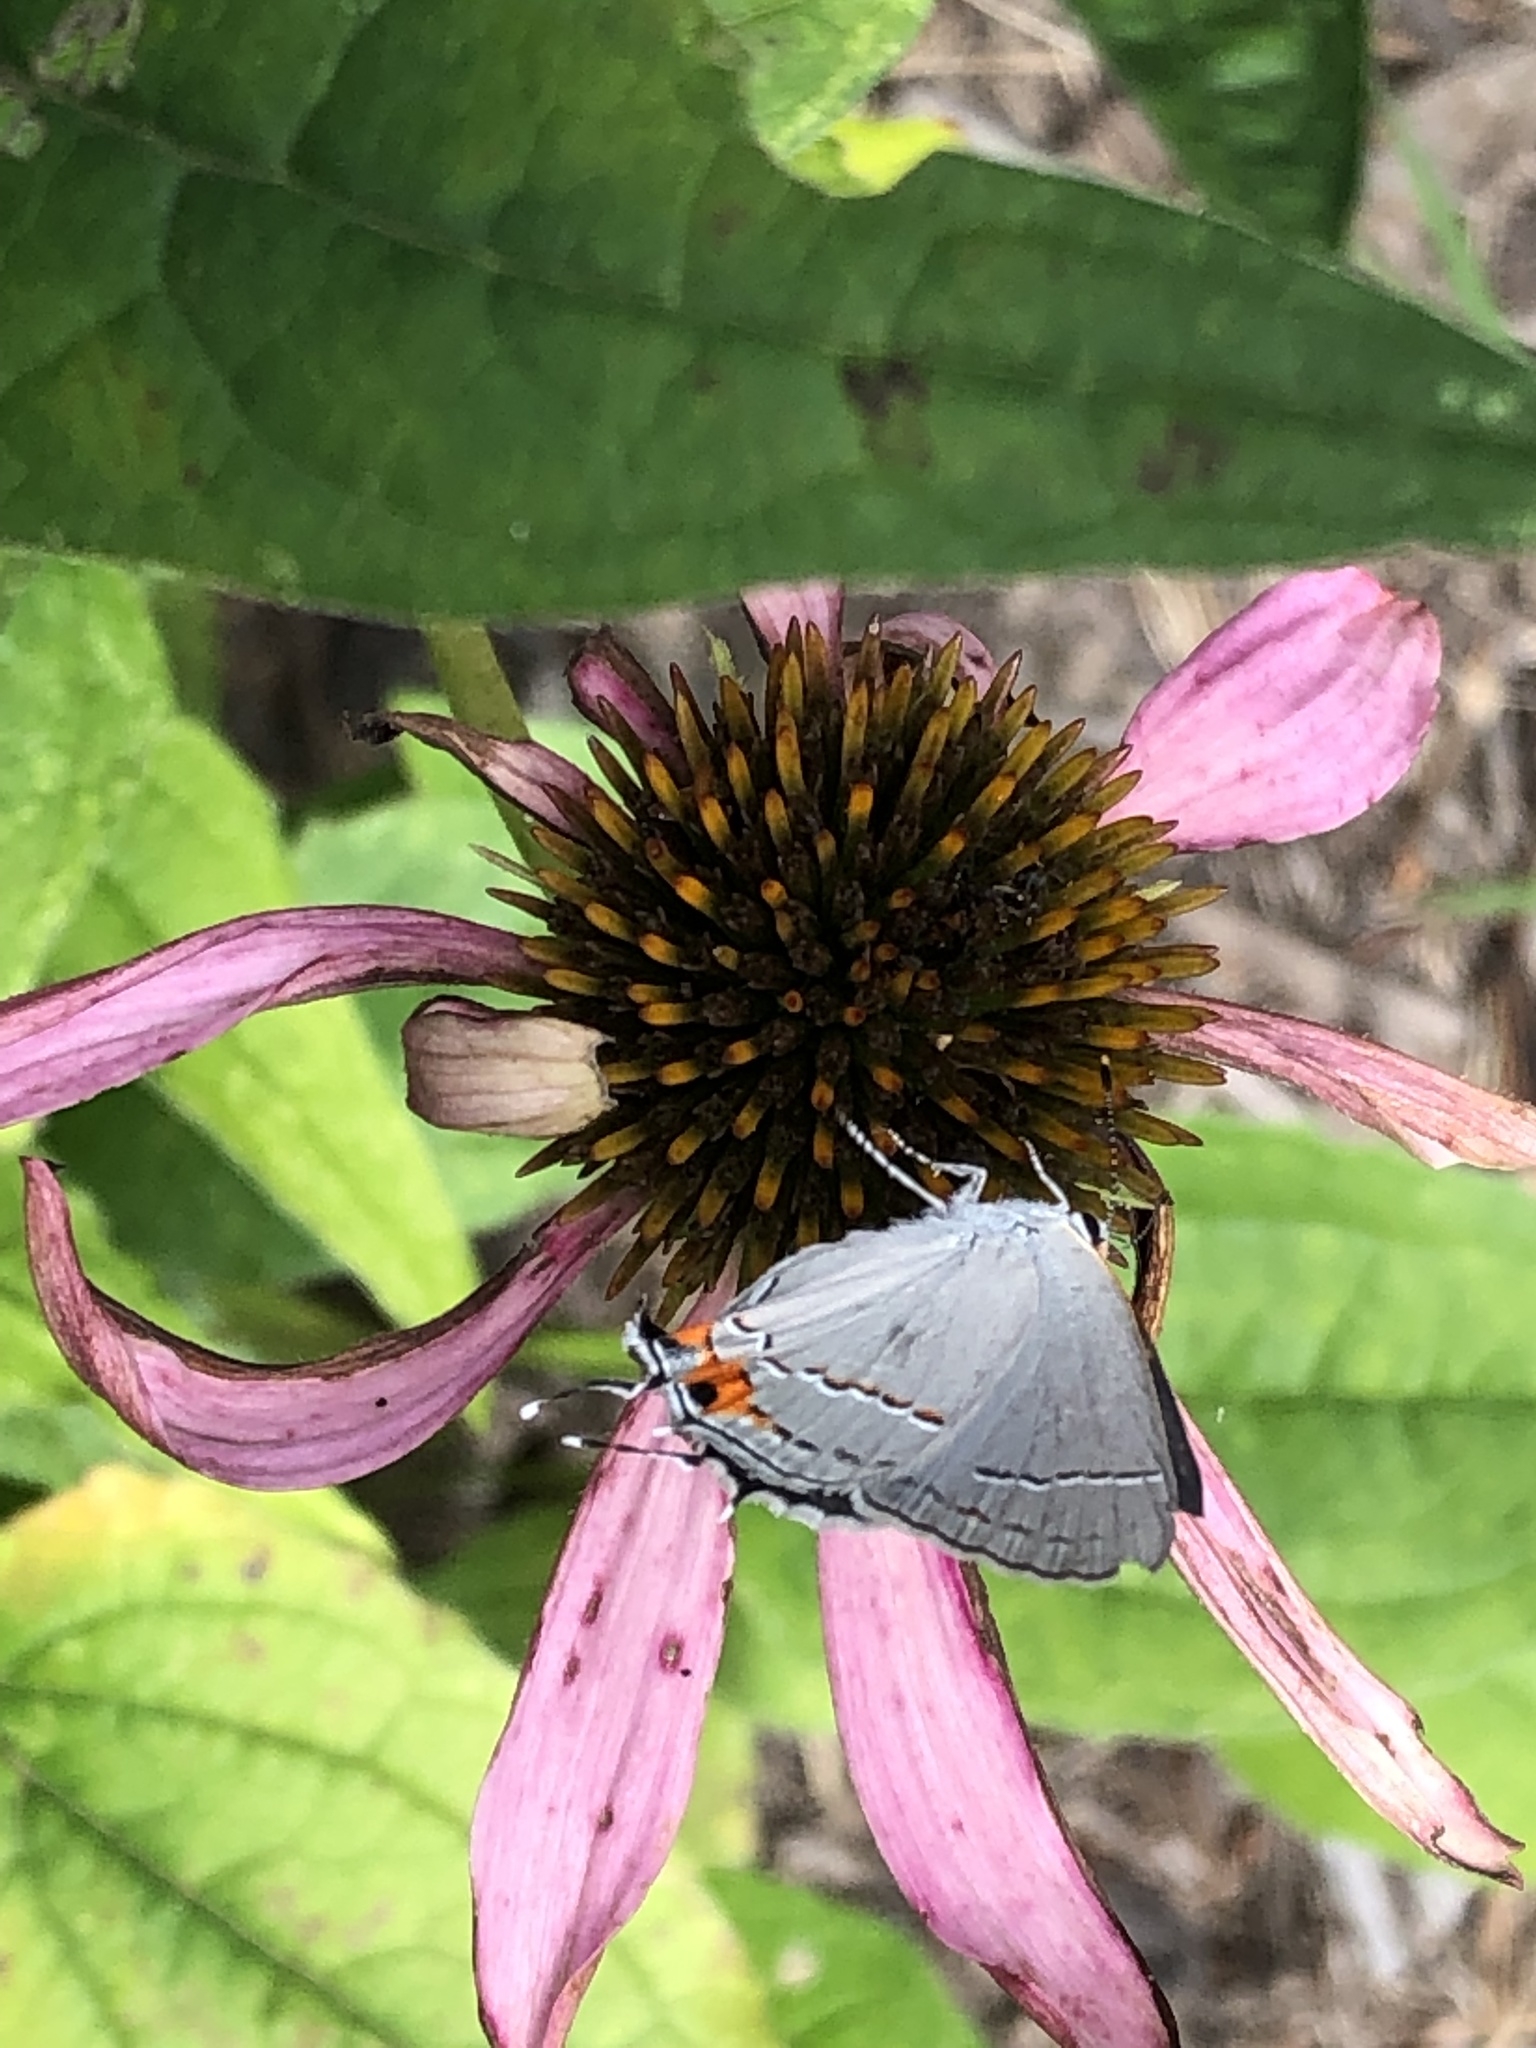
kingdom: Animalia
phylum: Arthropoda
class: Insecta
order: Lepidoptera
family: Lycaenidae
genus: Strymon
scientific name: Strymon melinus
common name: Gray hairstreak
